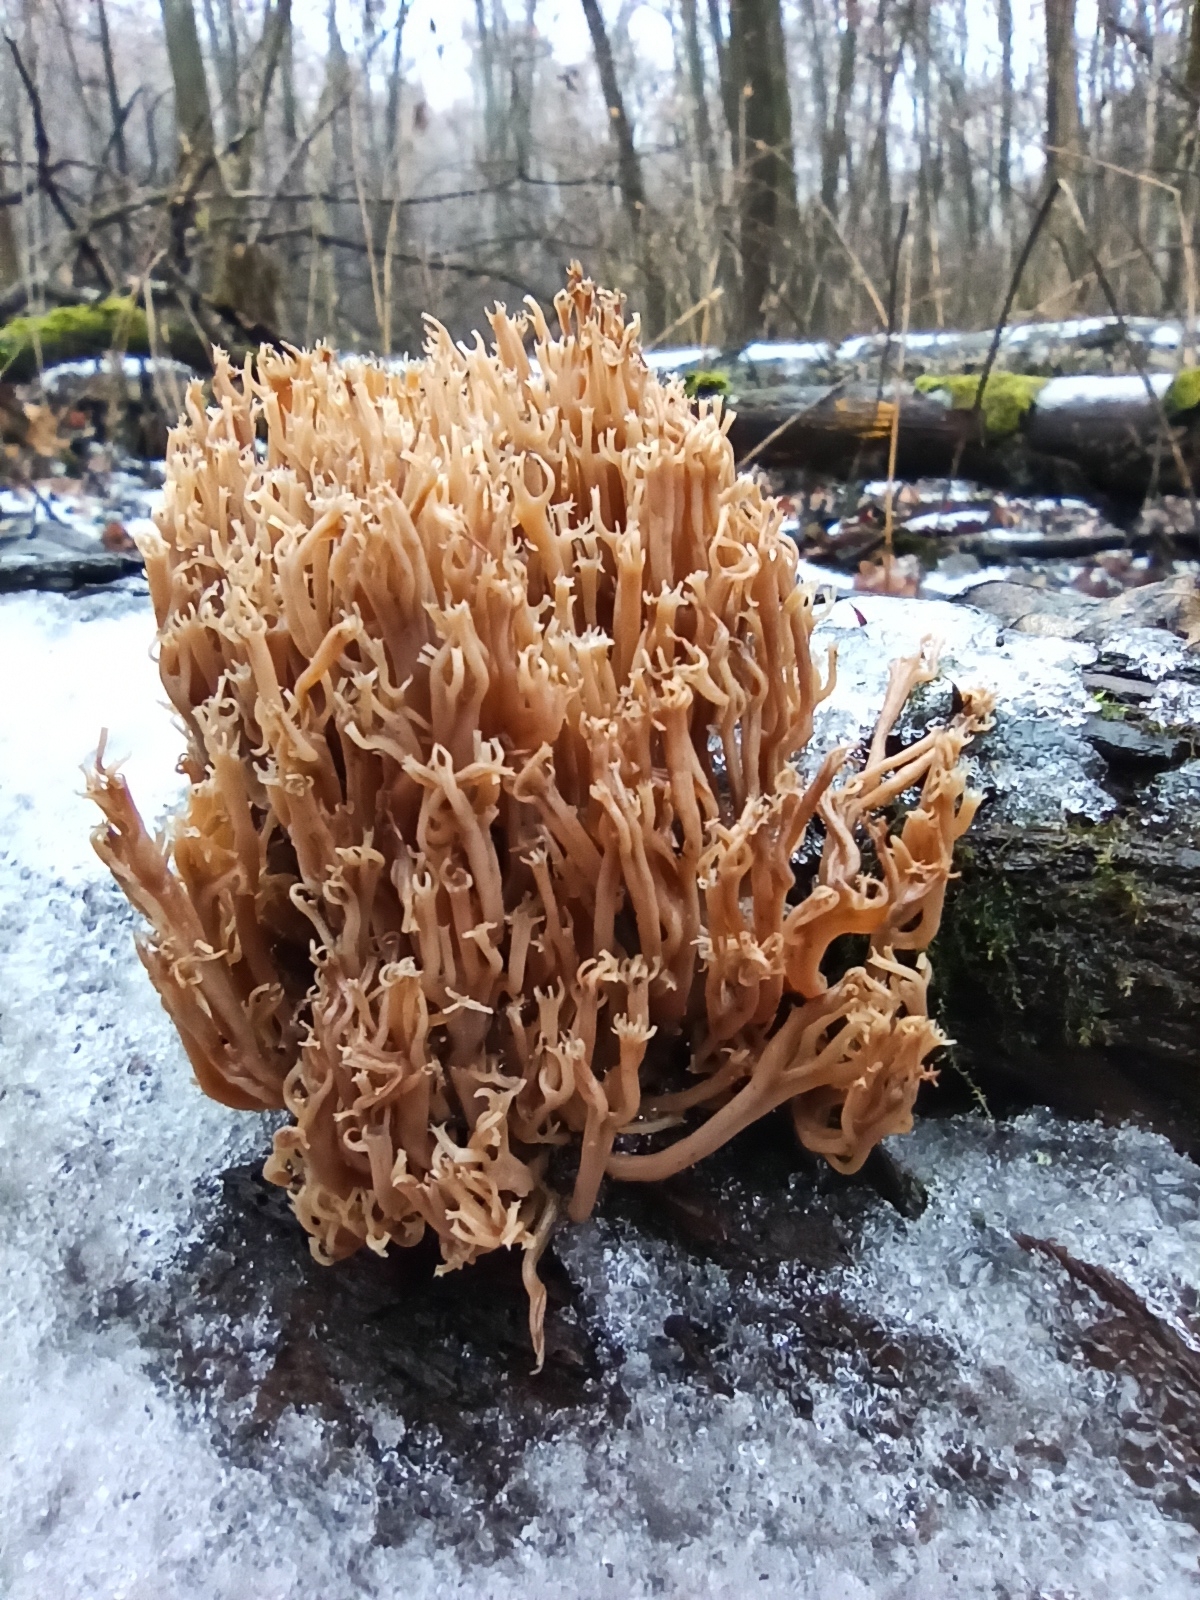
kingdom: Fungi
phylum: Basidiomycota
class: Agaricomycetes
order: Russulales
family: Auriscalpiaceae
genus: Artomyces
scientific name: Artomyces pyxidatus
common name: Crown-tipped coral fungus
